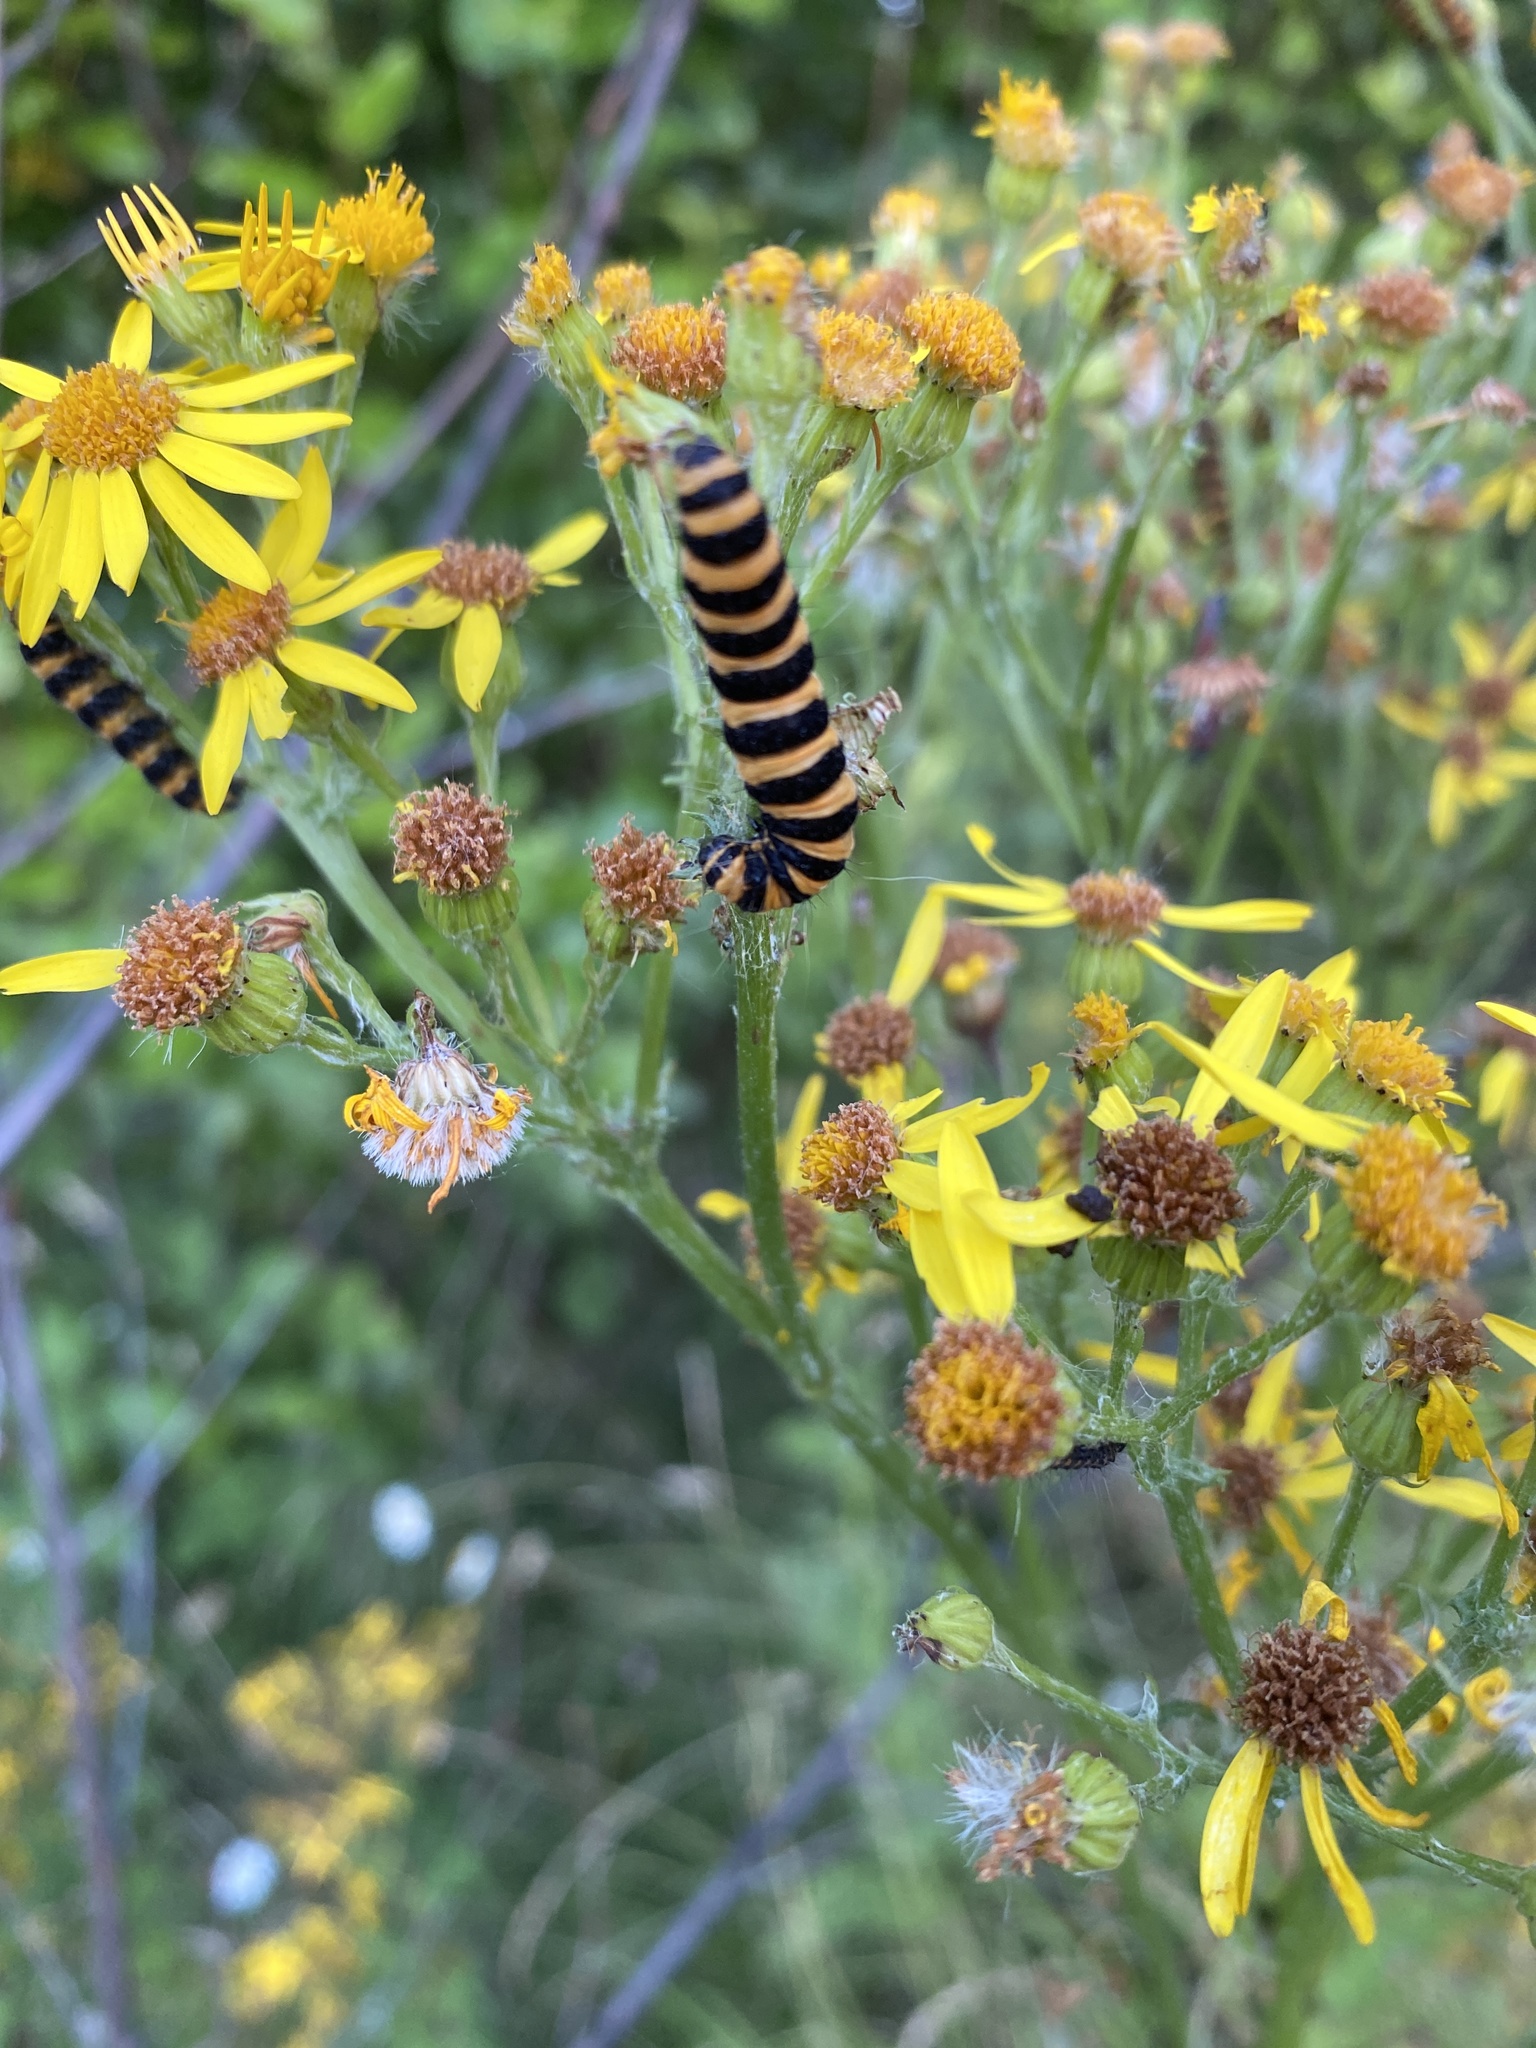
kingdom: Animalia
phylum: Arthropoda
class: Insecta
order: Lepidoptera
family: Erebidae
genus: Tyria
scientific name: Tyria jacobaeae
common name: Cinnabar
